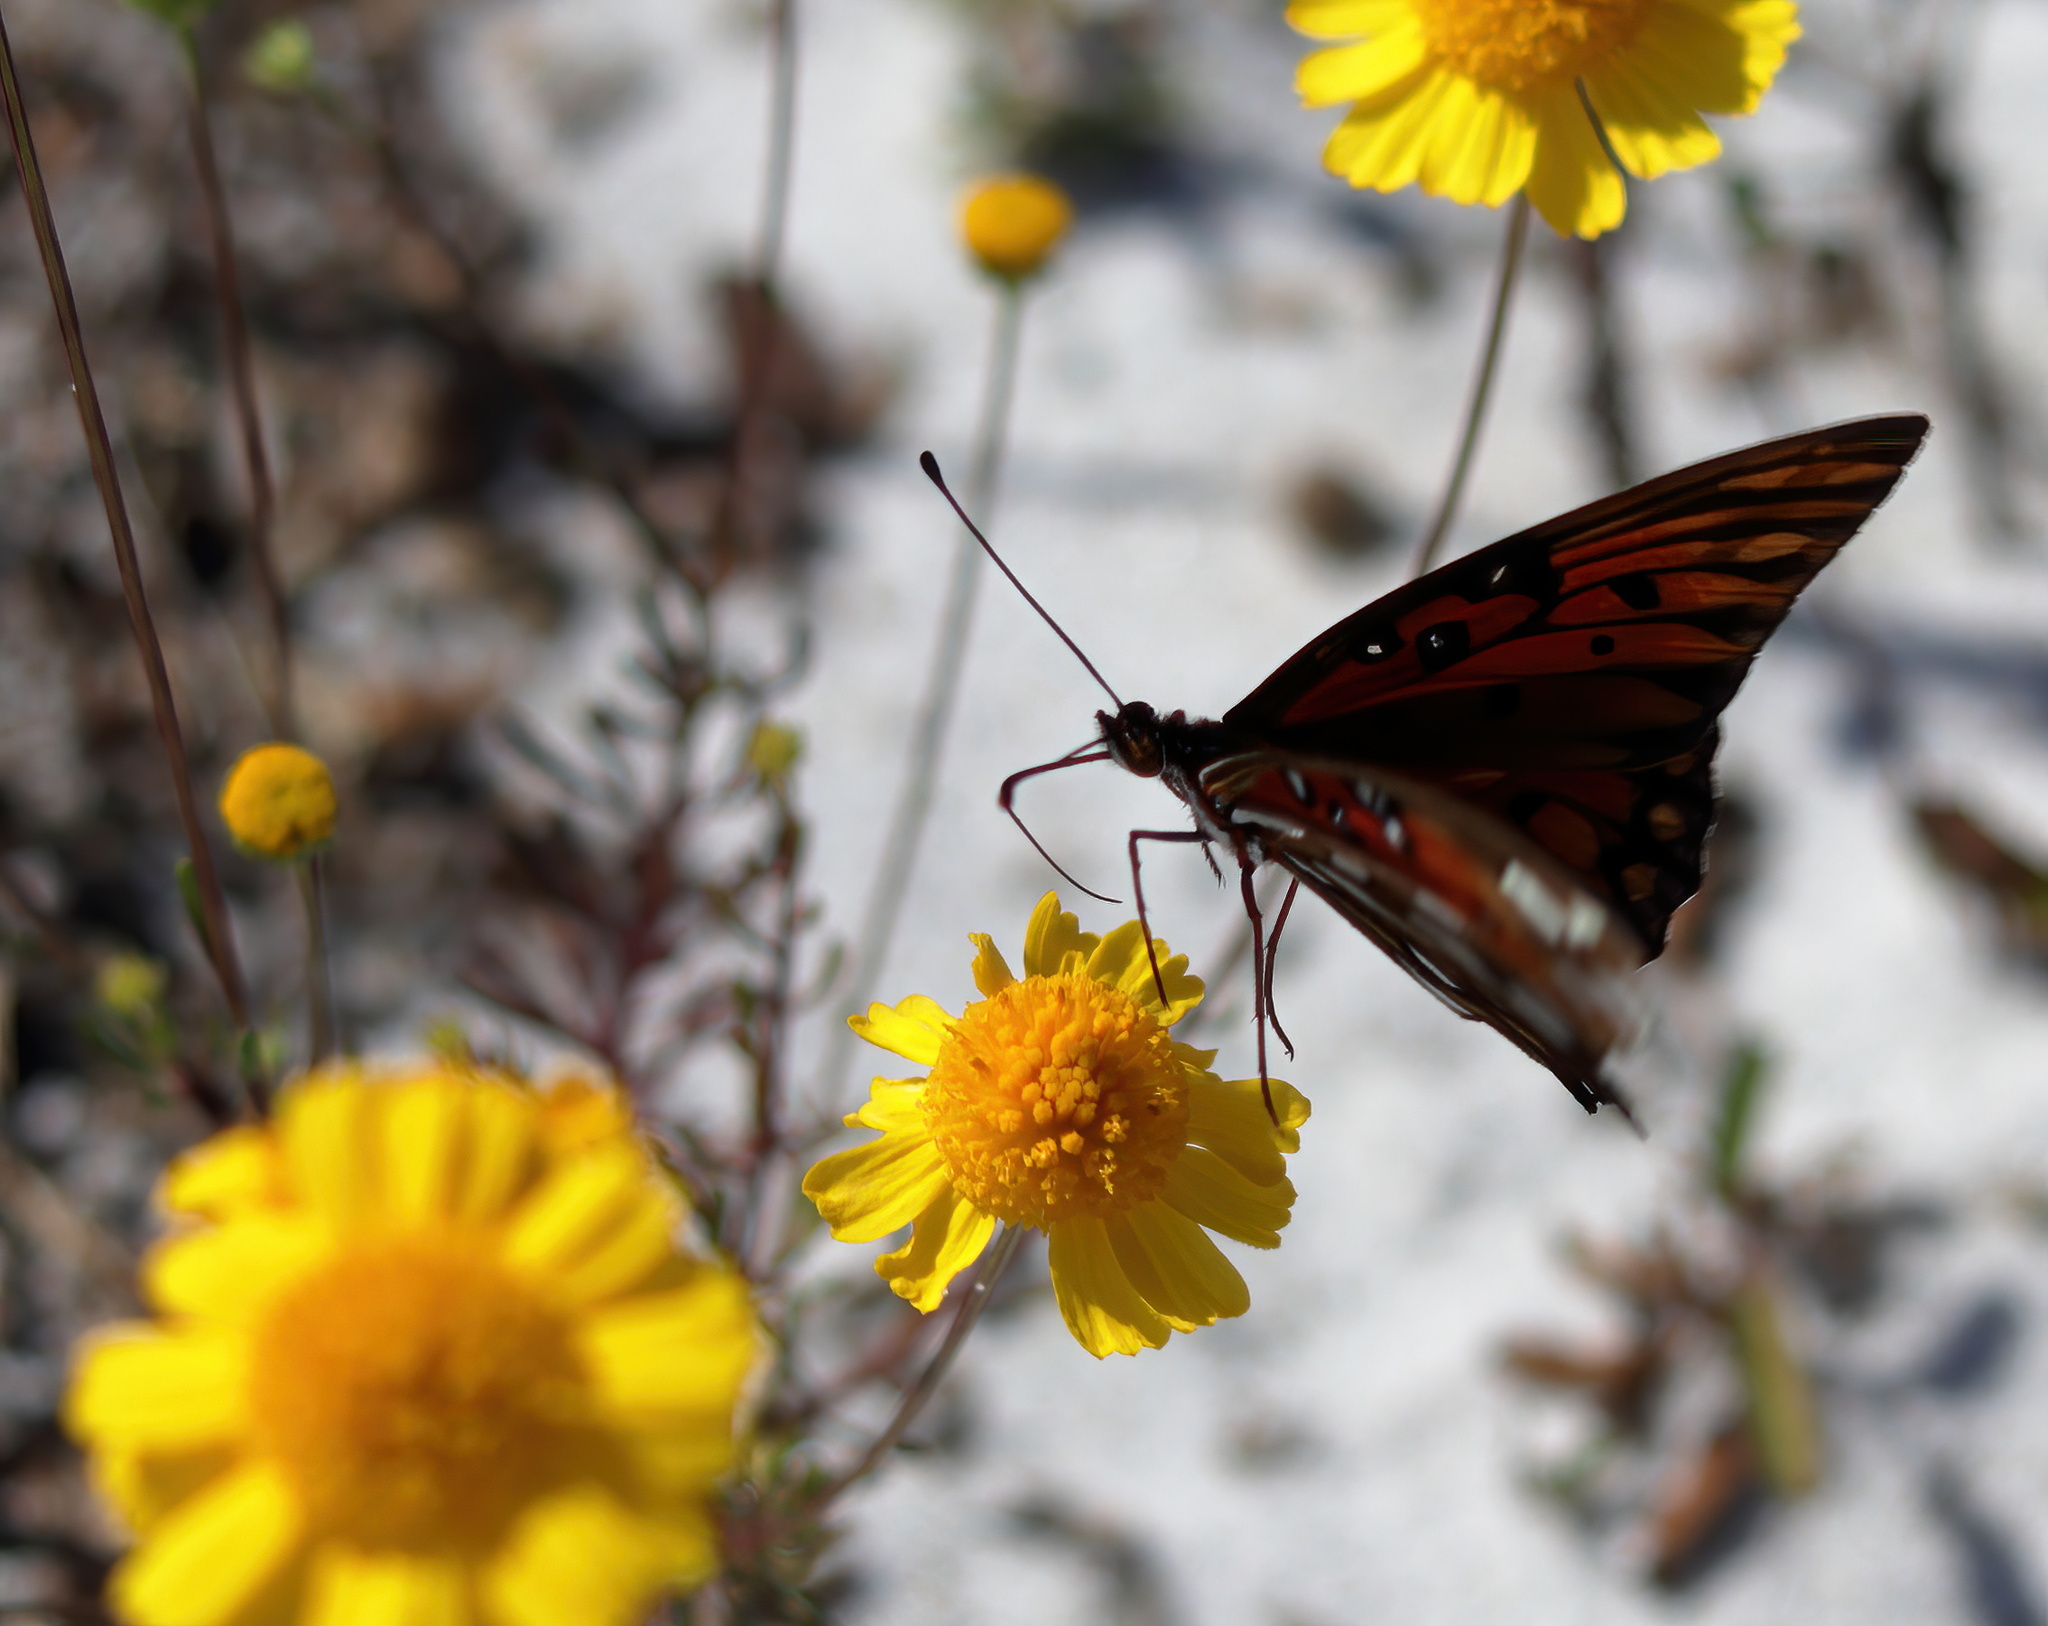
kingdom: Animalia
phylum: Arthropoda
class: Insecta
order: Lepidoptera
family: Nymphalidae
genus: Dione
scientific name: Dione vanillae
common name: Gulf fritillary
